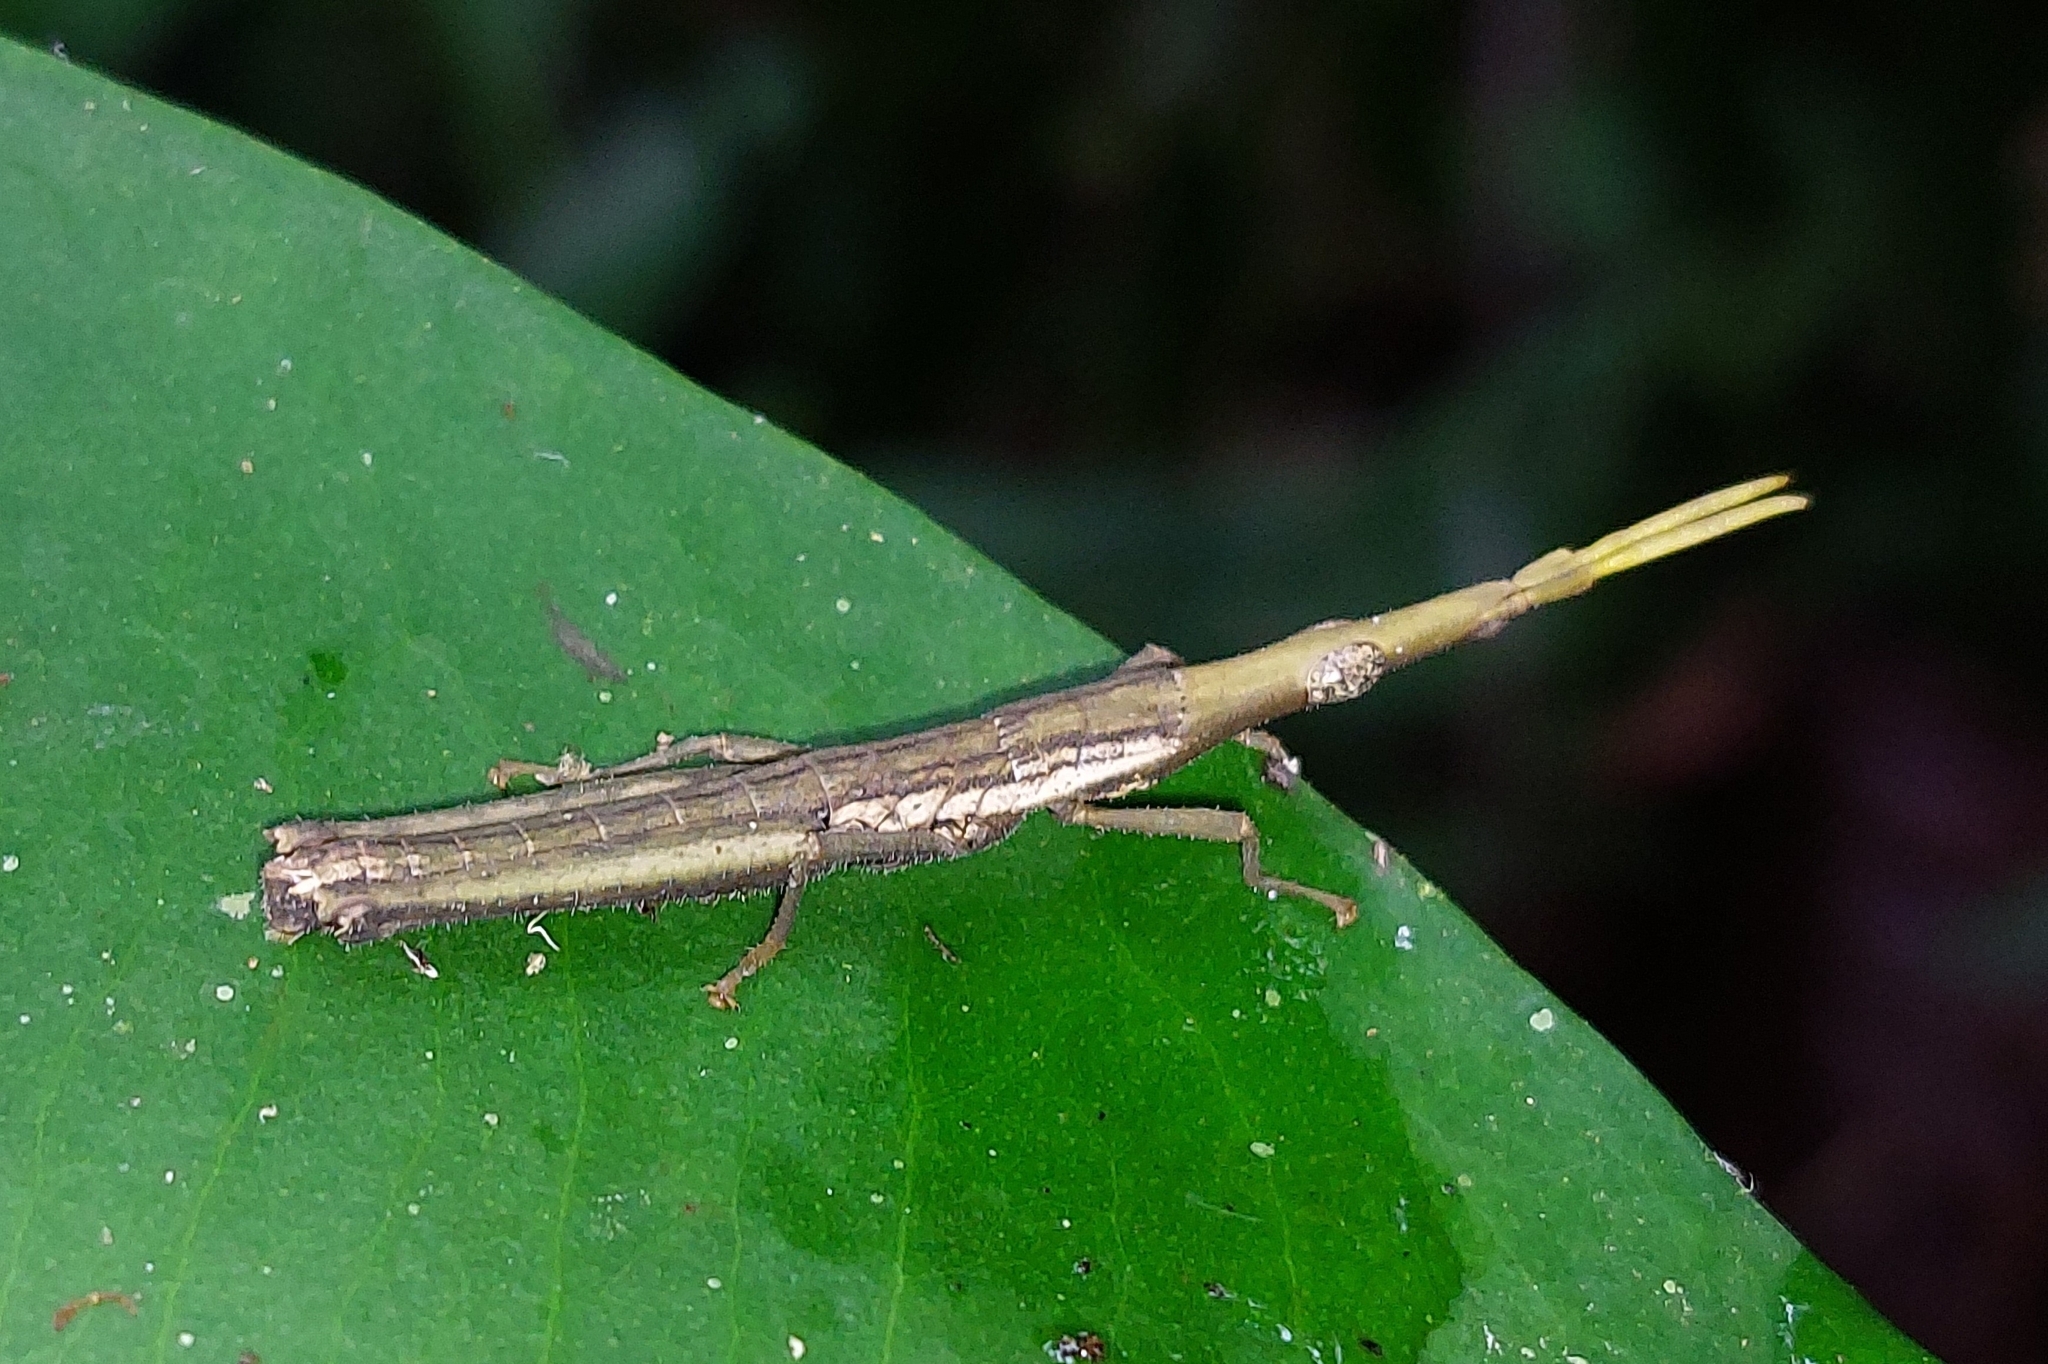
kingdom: Animalia
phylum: Arthropoda
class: Insecta
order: Orthoptera
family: Pyrgomorphidae
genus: Omura
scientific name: Omura congrua
